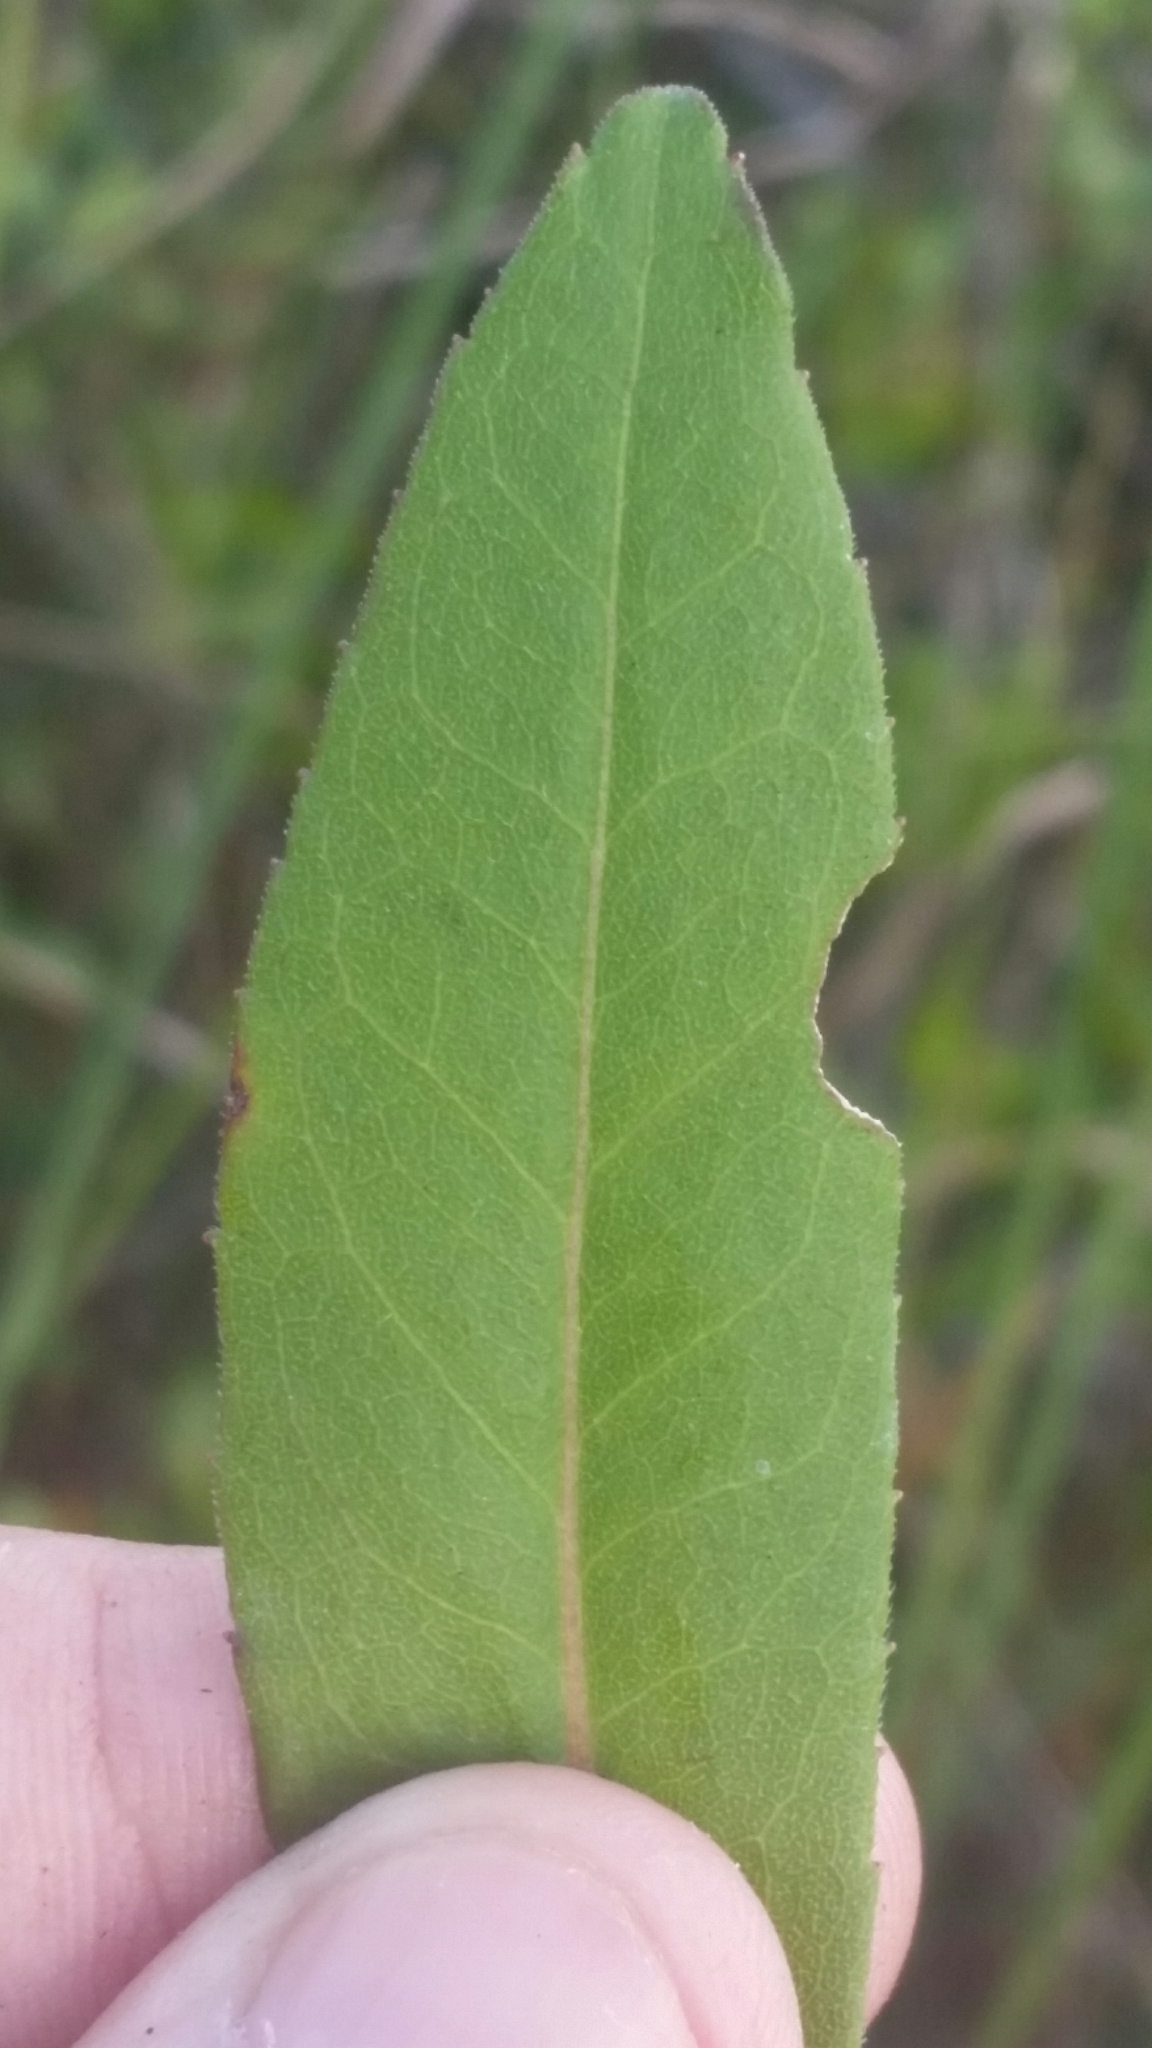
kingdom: Plantae
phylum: Tracheophyta
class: Magnoliopsida
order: Asterales
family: Asteraceae
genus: Solidago
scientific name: Solidago fistulosa
